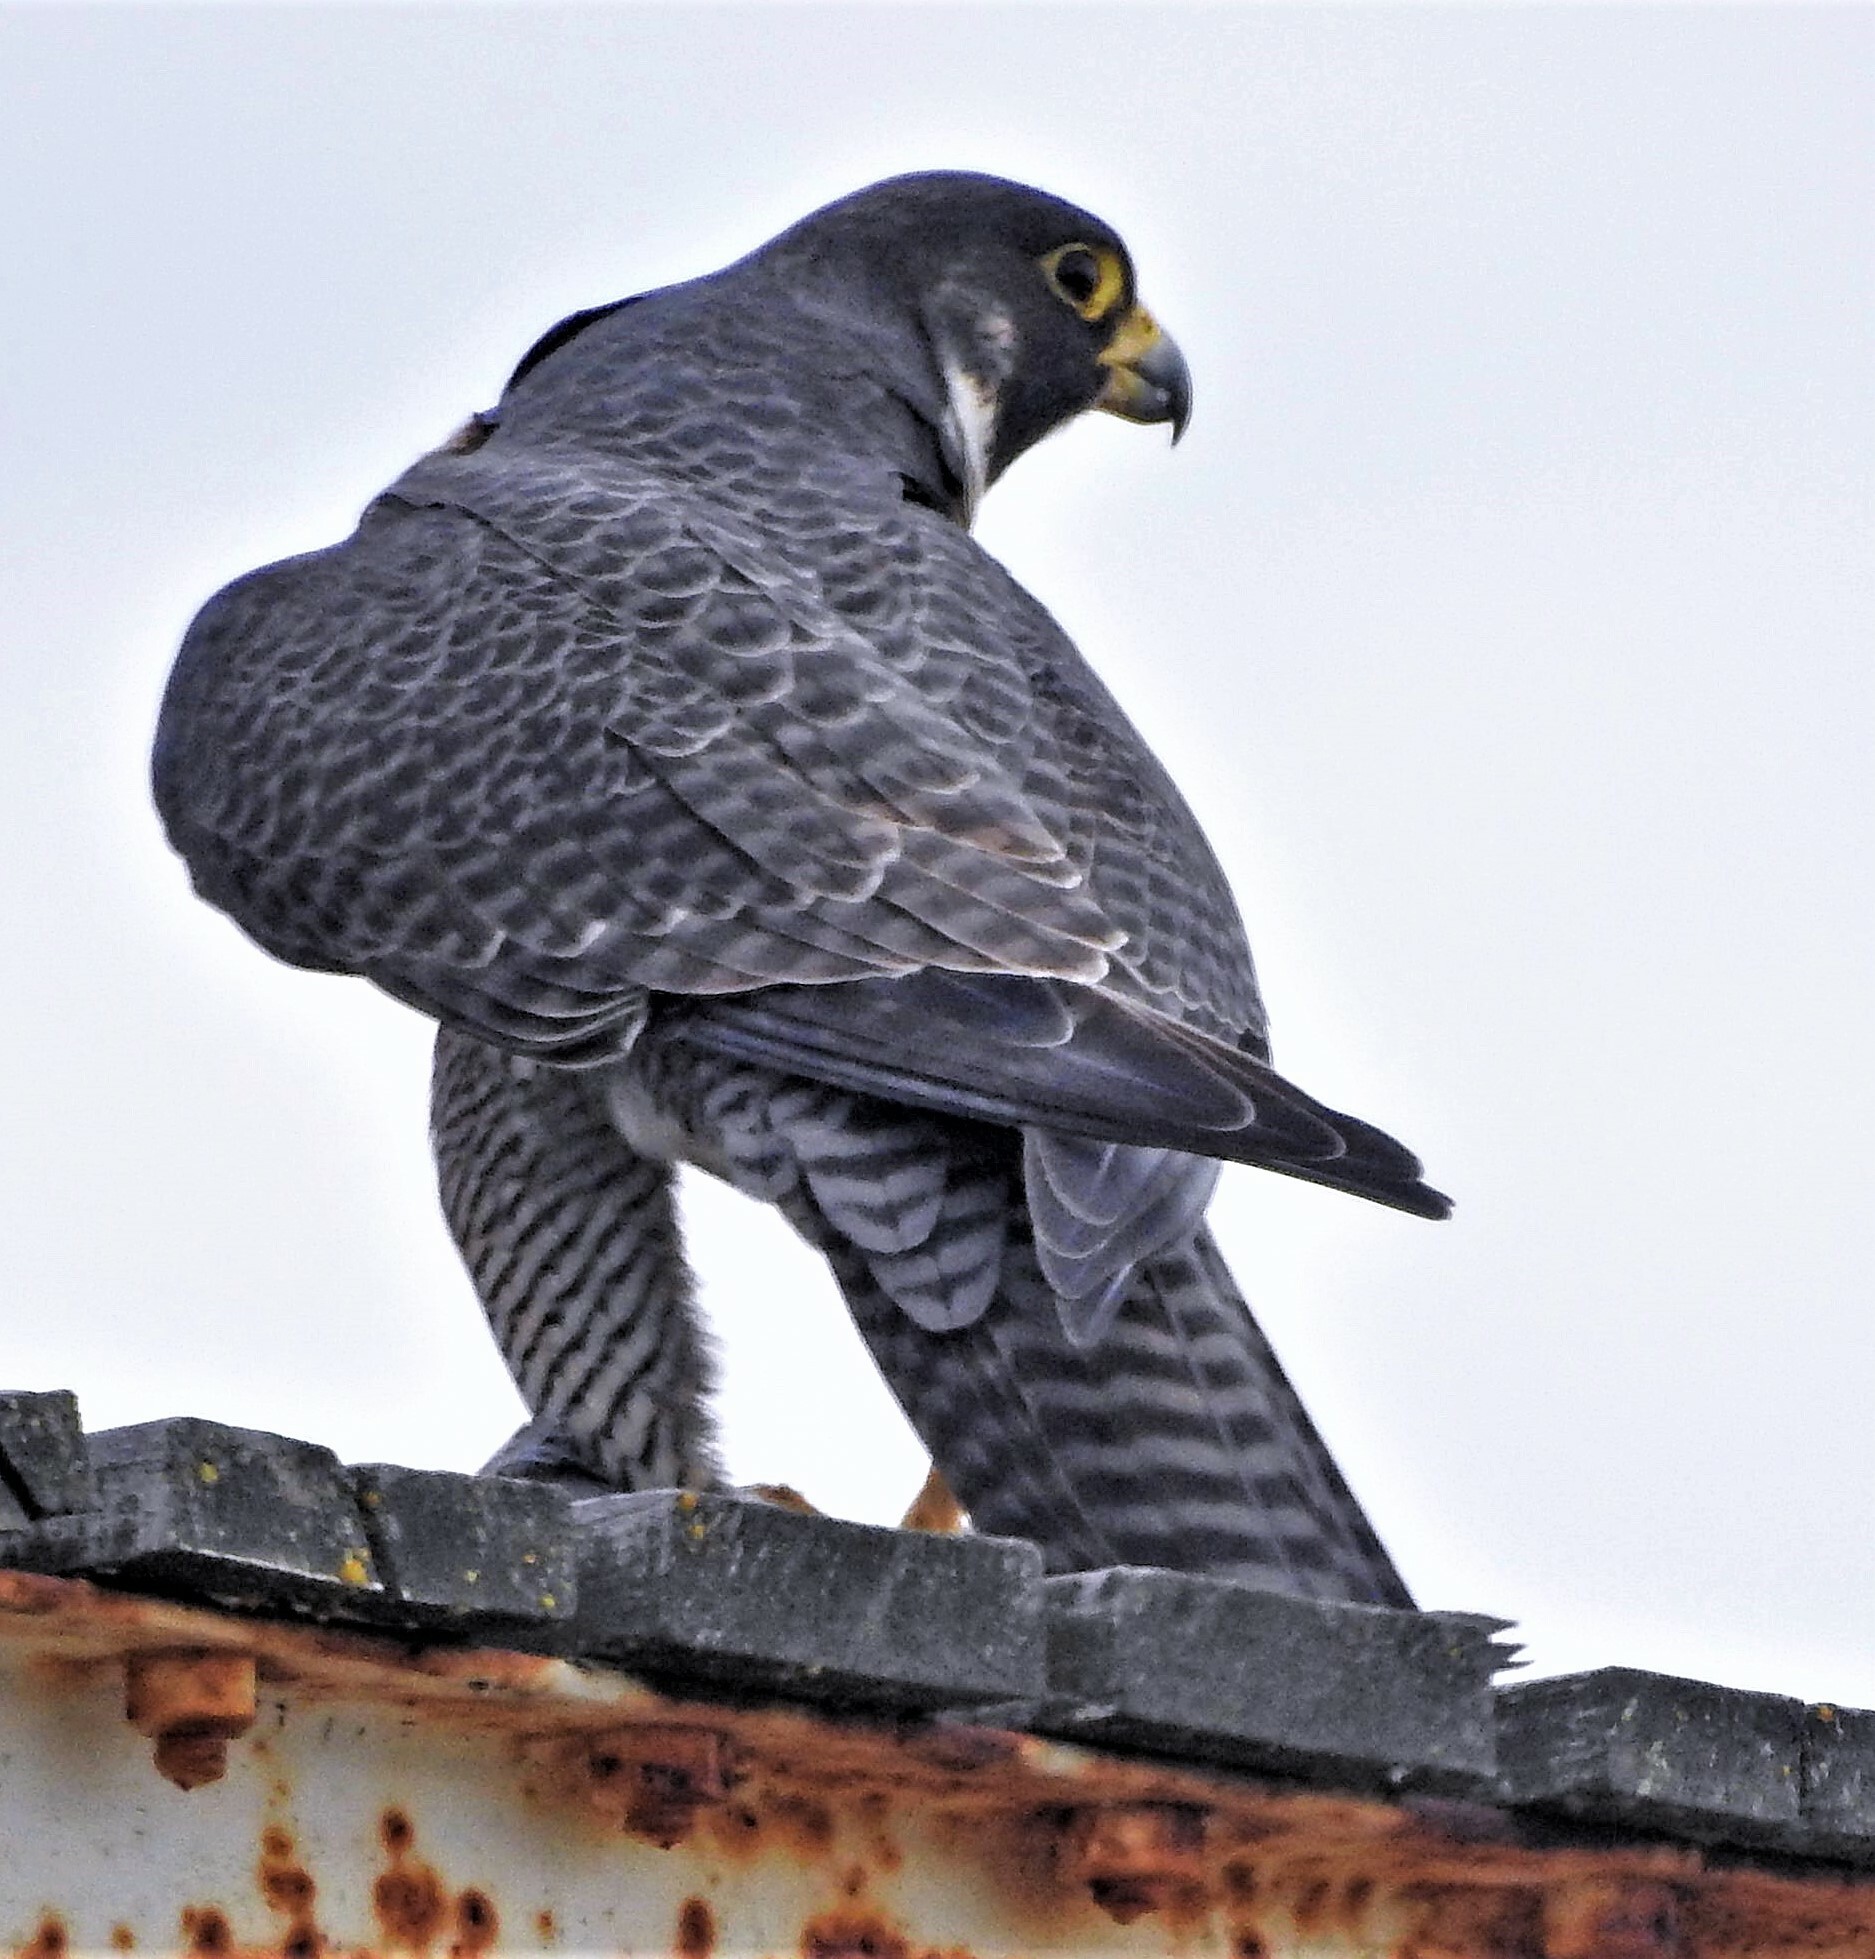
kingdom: Animalia
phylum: Chordata
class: Aves
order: Falconiformes
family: Falconidae
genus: Falco
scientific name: Falco peregrinus
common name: Peregrine falcon
